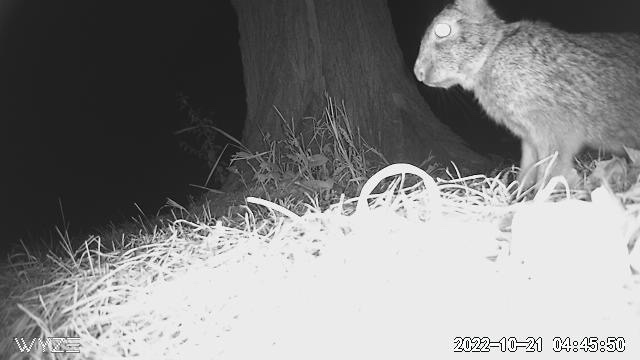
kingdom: Animalia
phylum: Chordata
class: Mammalia
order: Lagomorpha
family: Leporidae
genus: Sylvilagus
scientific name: Sylvilagus floridanus
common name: Eastern cottontail
